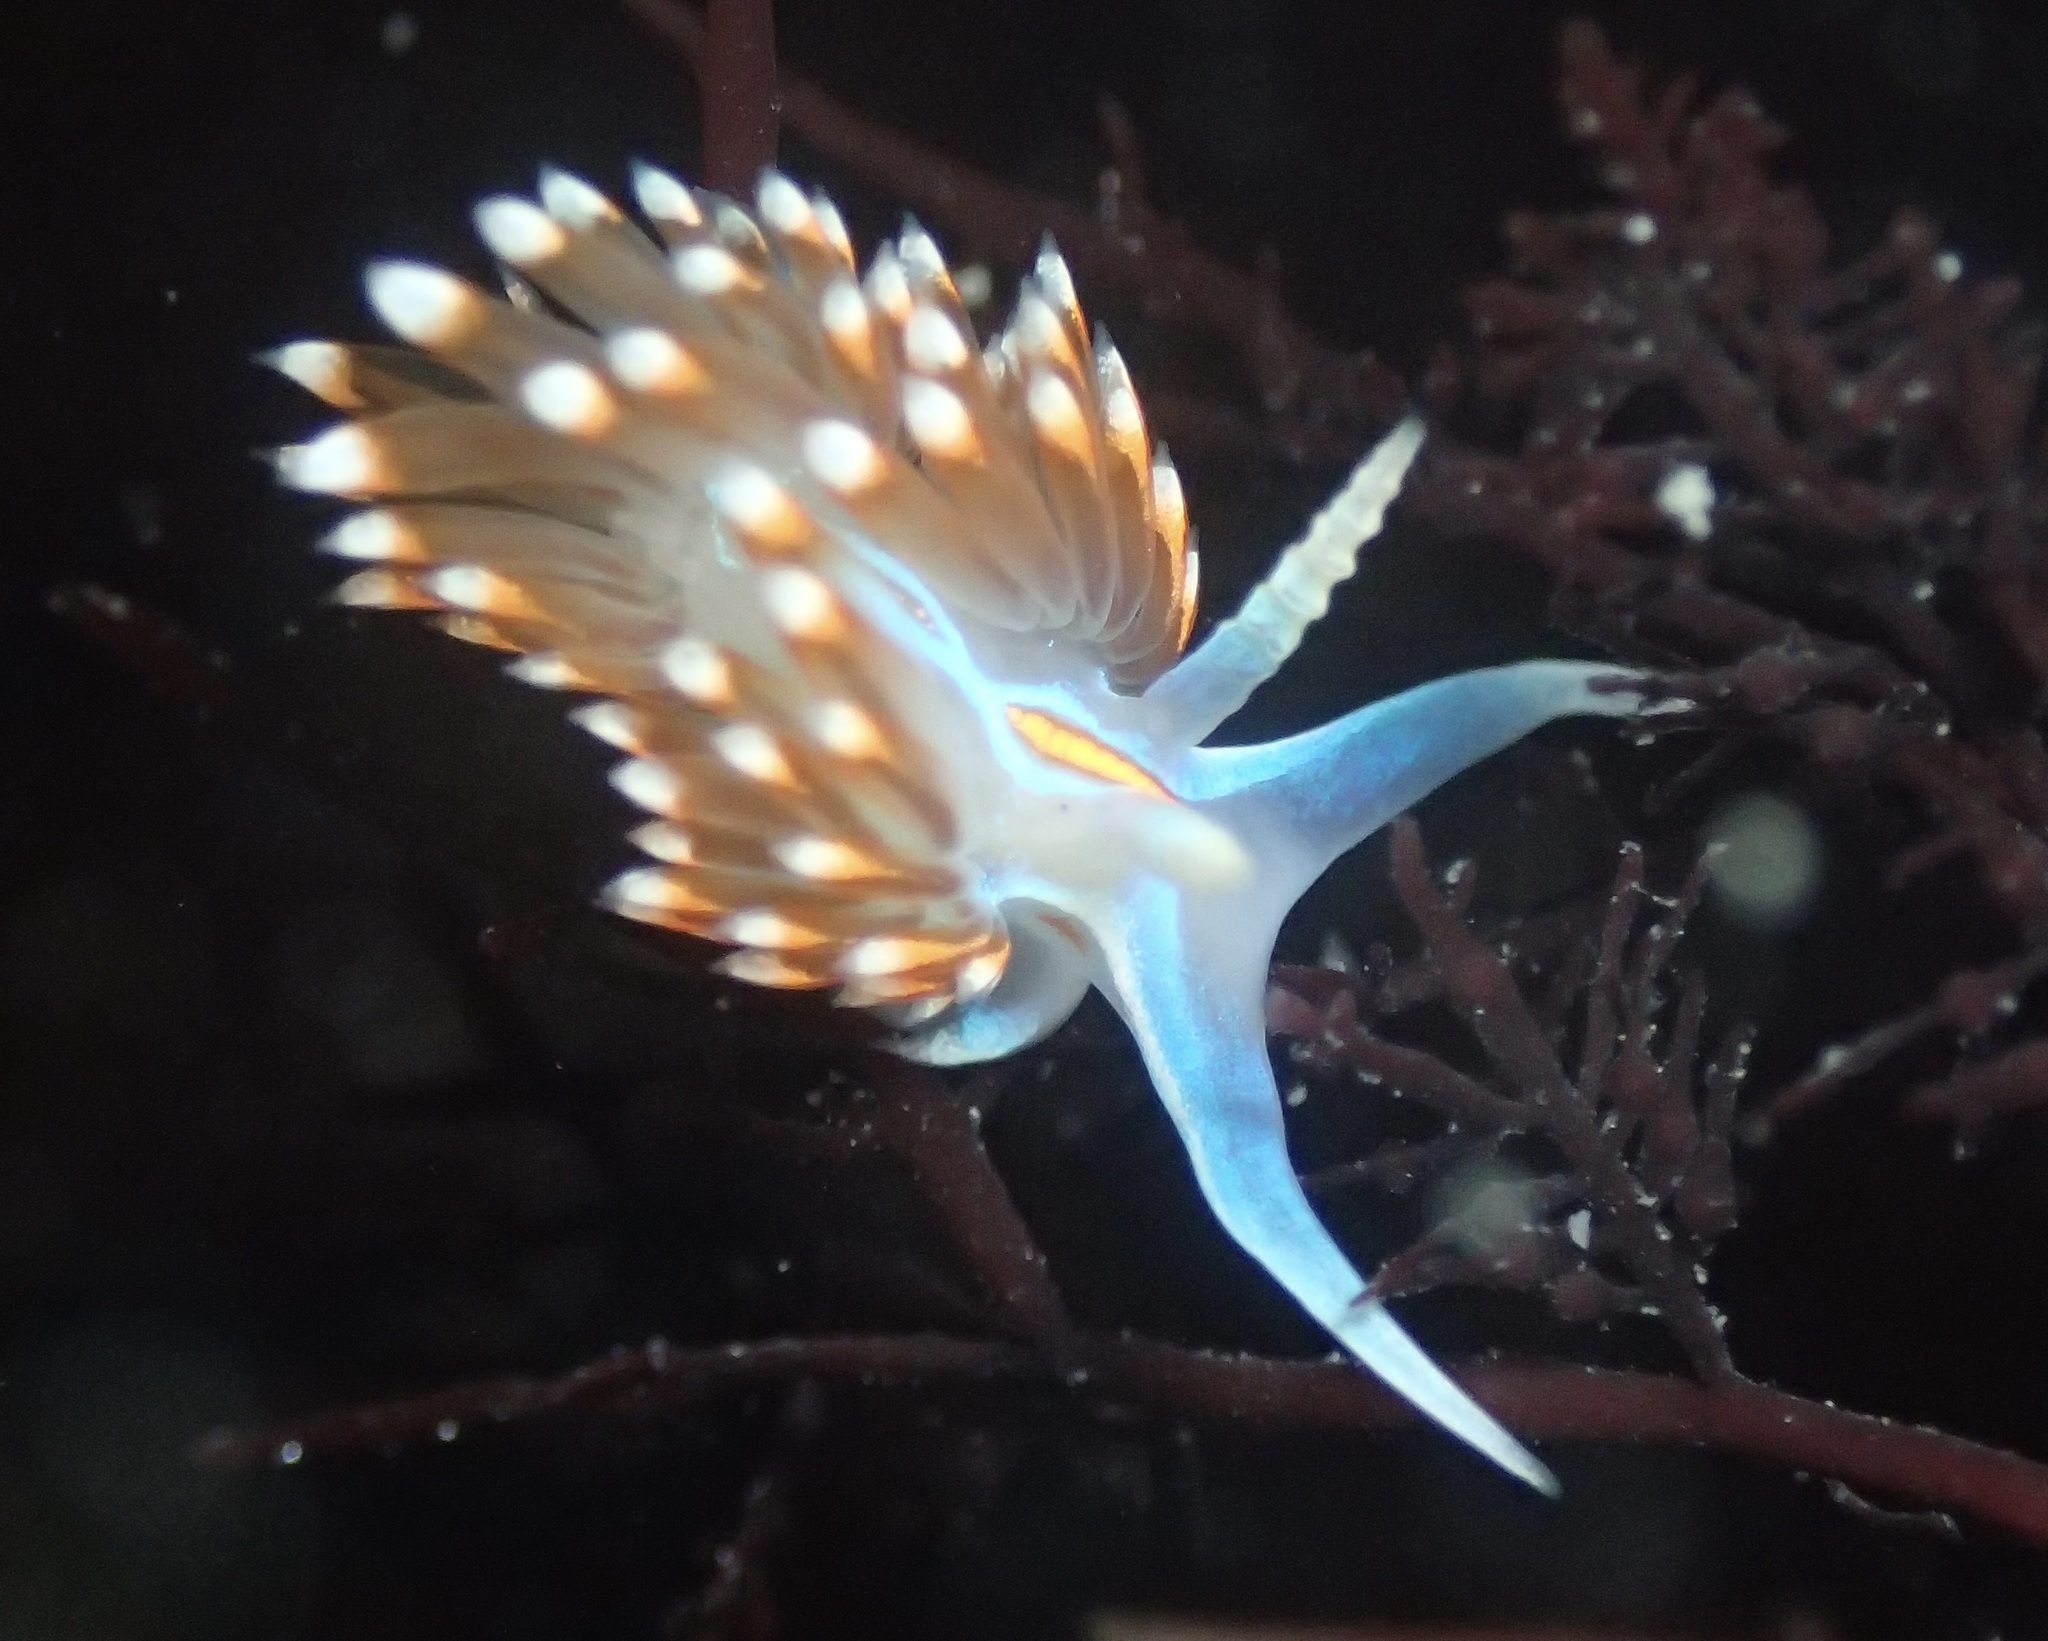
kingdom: Animalia
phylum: Mollusca
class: Gastropoda
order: Nudibranchia
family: Myrrhinidae
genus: Hermissenda
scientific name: Hermissenda opalescens
